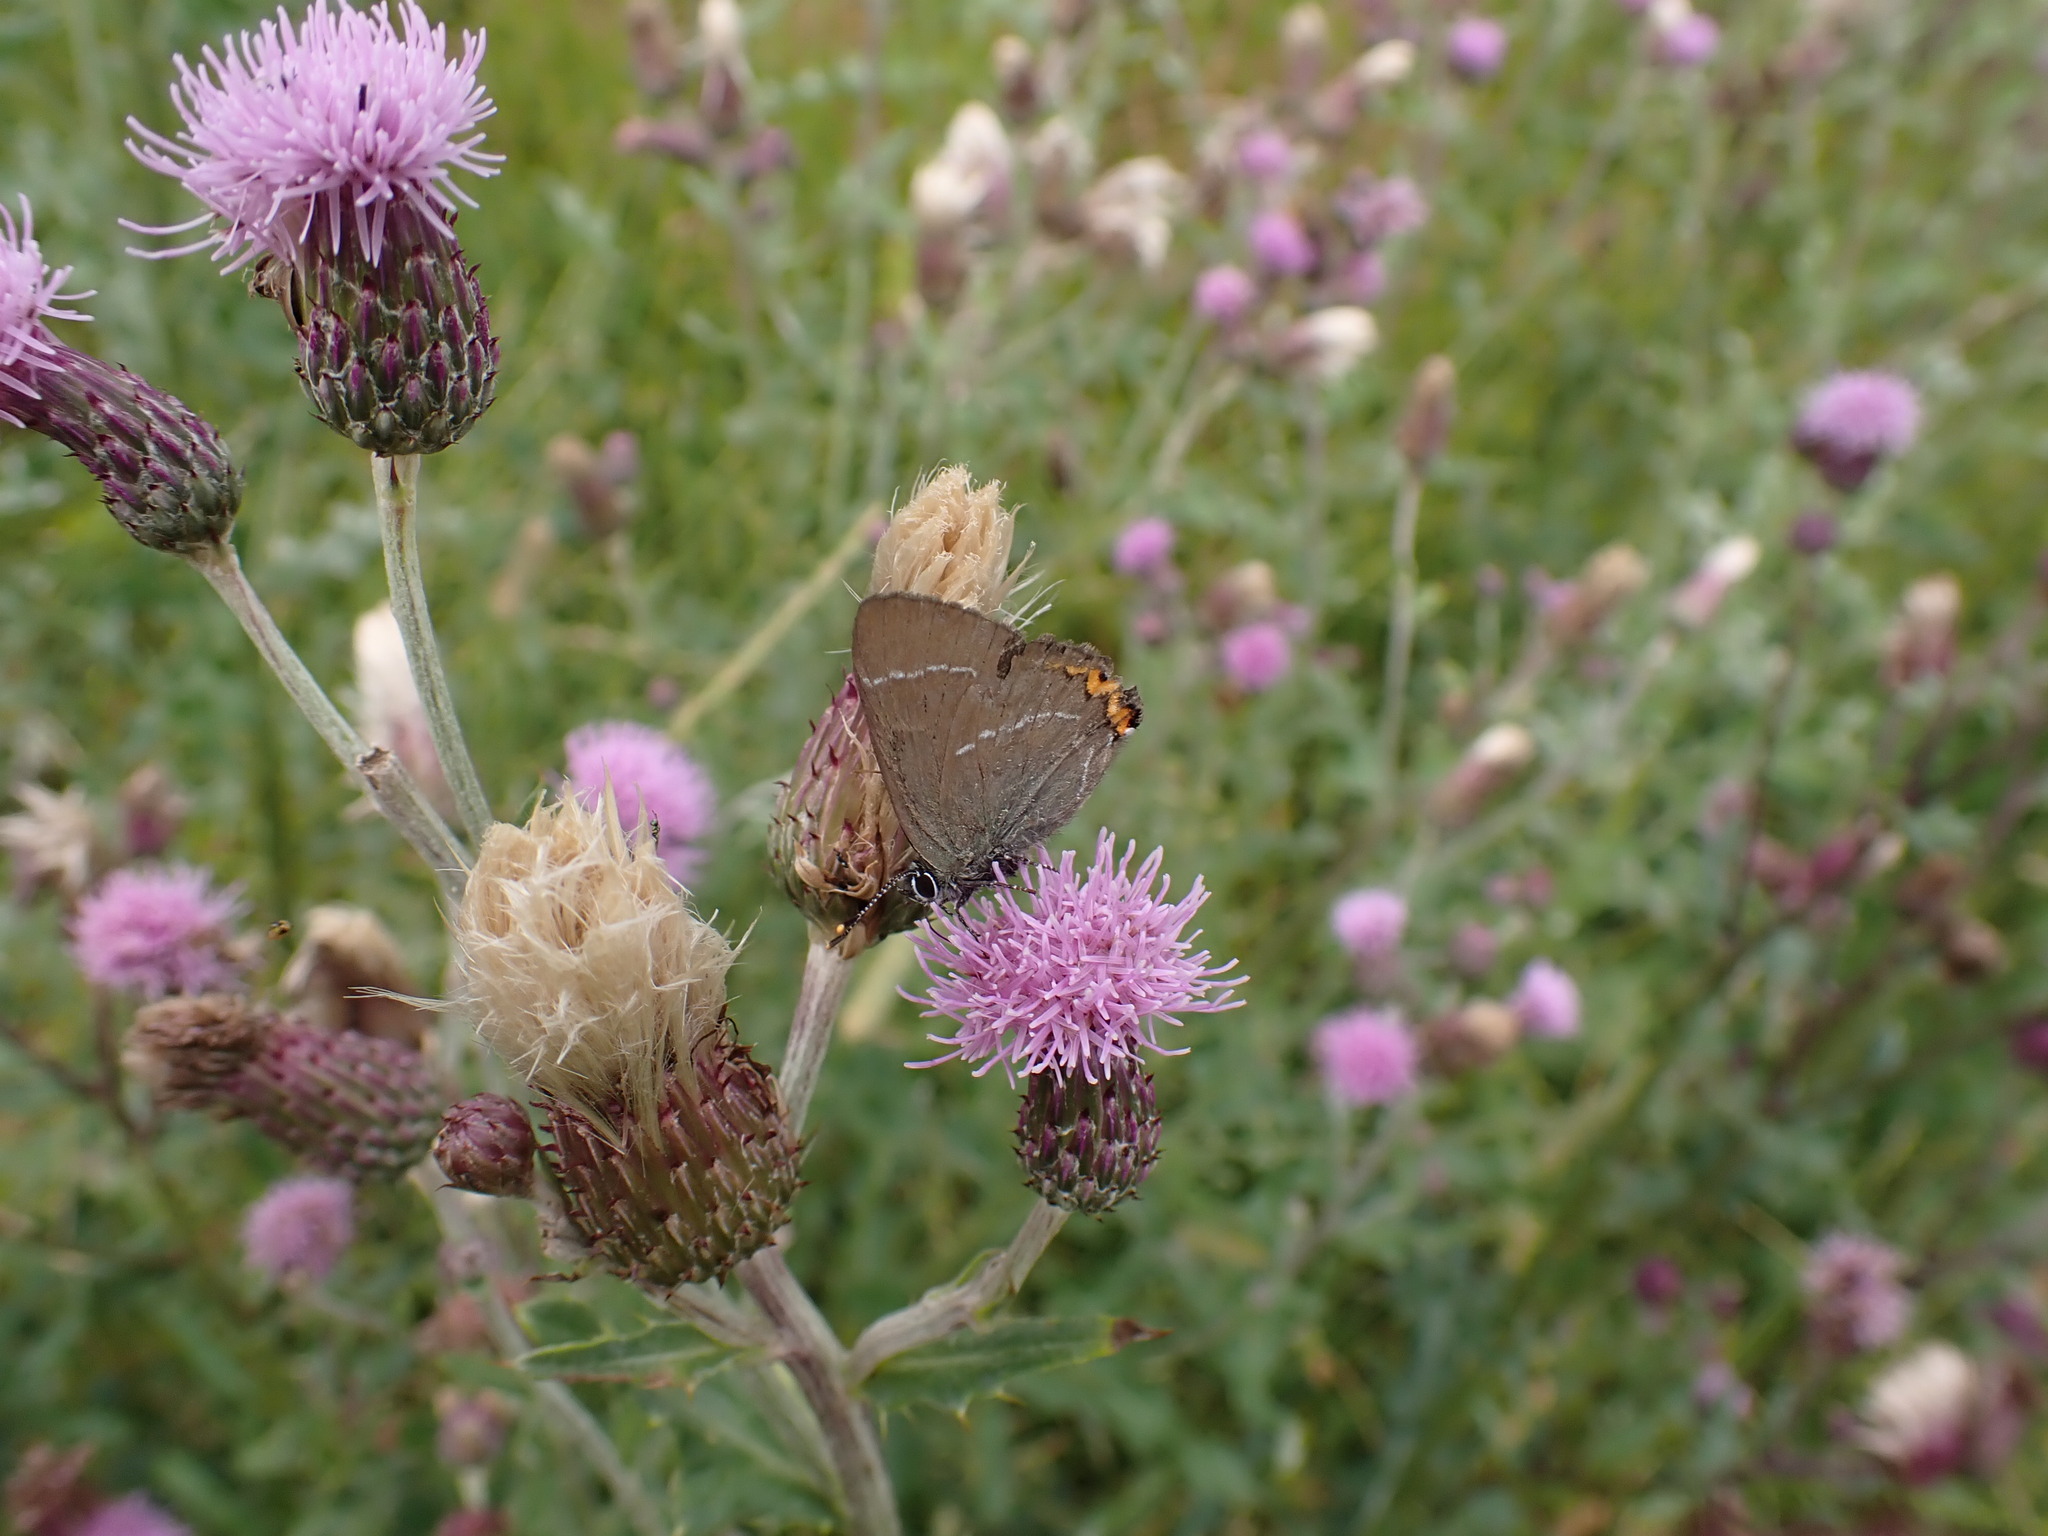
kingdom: Animalia
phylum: Arthropoda
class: Insecta
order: Lepidoptera
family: Lycaenidae
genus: Satyrium
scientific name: Satyrium w-album
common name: White-letter hairstreak
